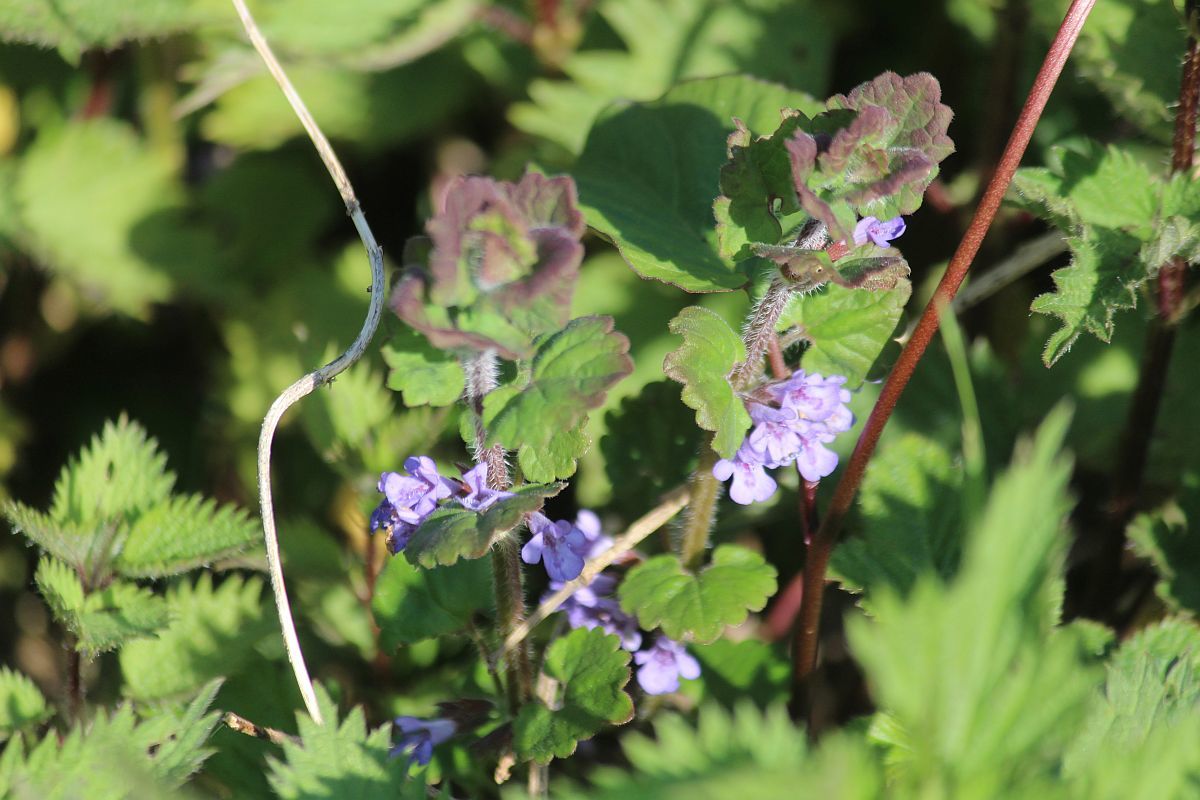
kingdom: Plantae
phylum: Tracheophyta
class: Magnoliopsida
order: Lamiales
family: Lamiaceae
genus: Glechoma
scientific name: Glechoma hederacea
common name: Ground ivy
